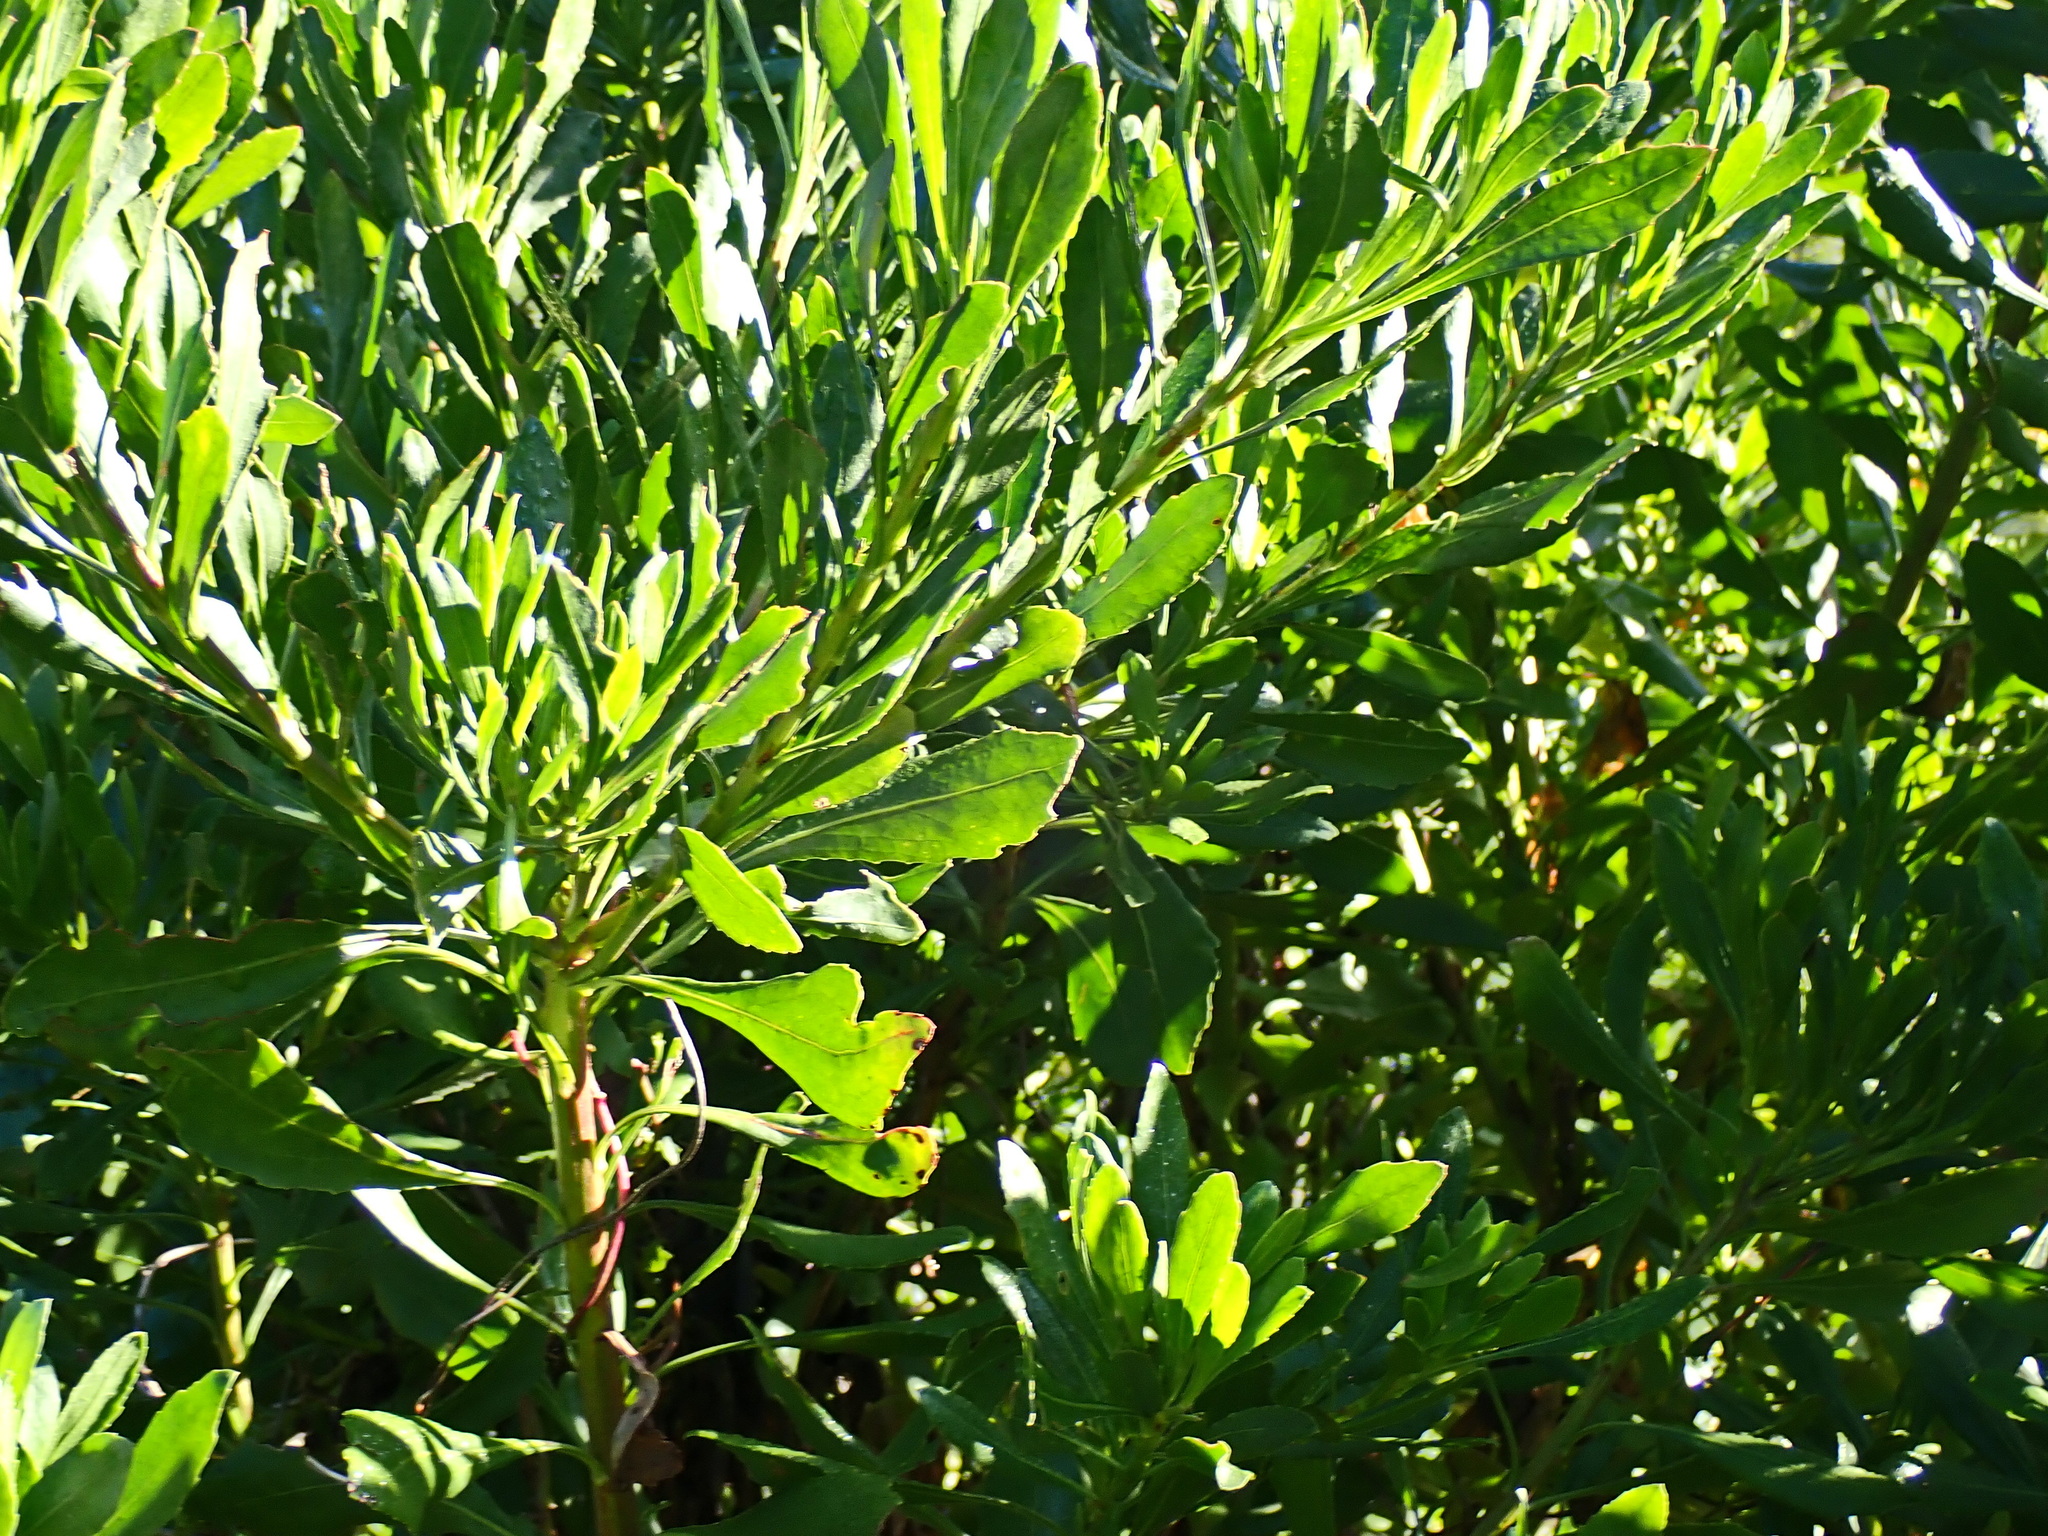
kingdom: Plantae
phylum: Tracheophyta
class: Magnoliopsida
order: Asterales
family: Asteraceae
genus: Osteospermum
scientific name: Osteospermum moniliferum
